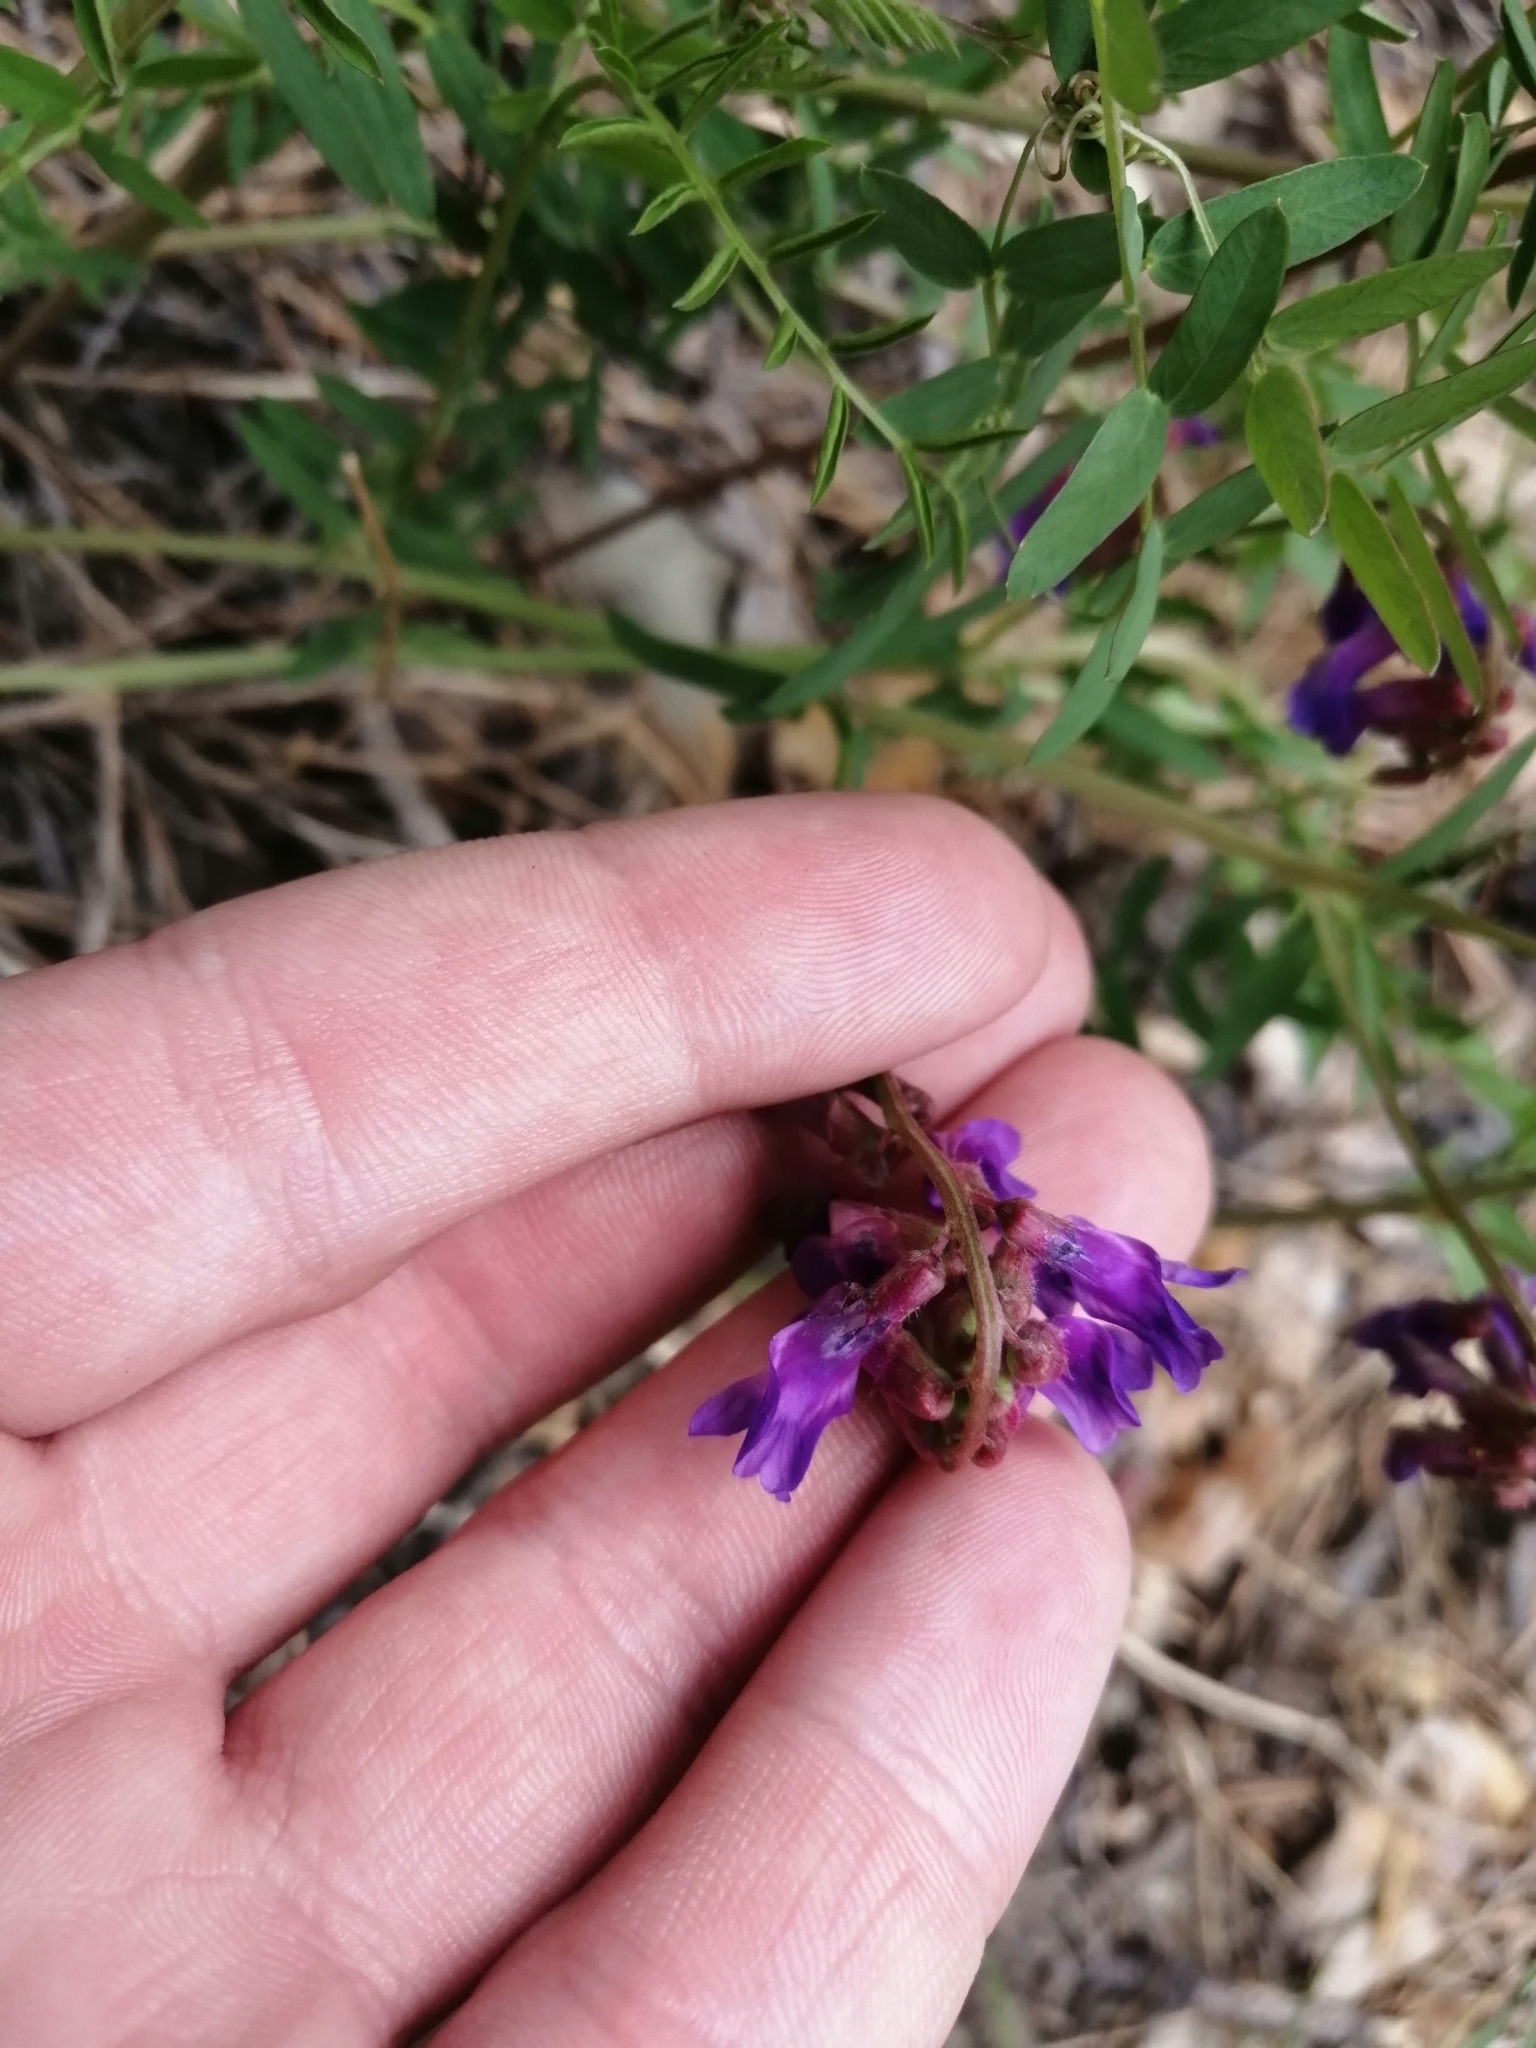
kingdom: Plantae
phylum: Tracheophyta
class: Magnoliopsida
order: Fabales
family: Fabaceae
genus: Vicia
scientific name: Vicia cracca
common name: Bird vetch
